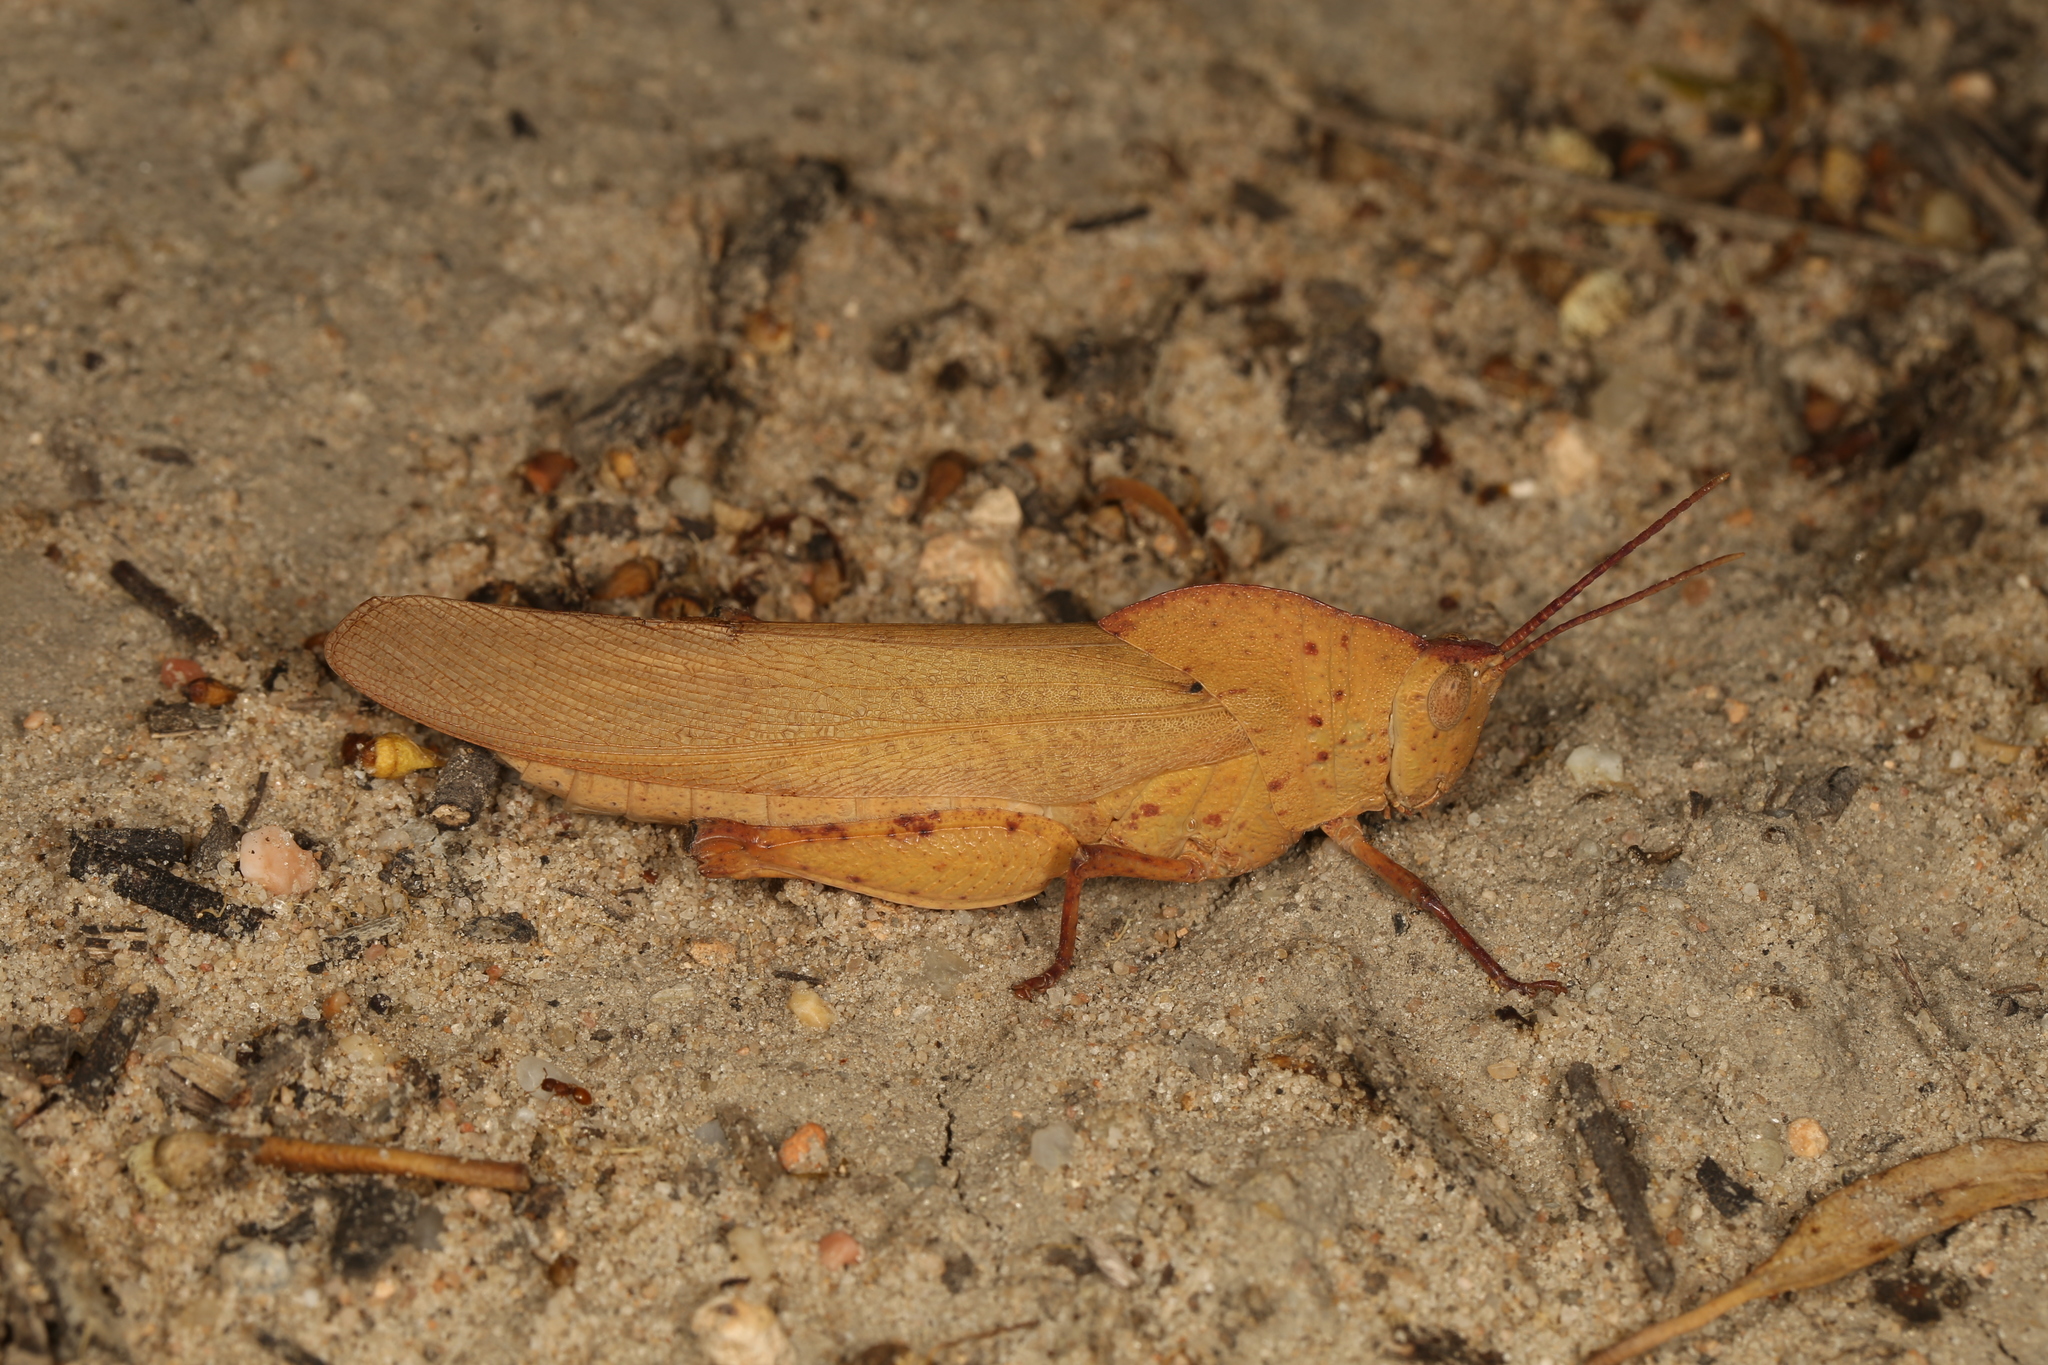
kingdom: Animalia
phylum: Arthropoda
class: Insecta
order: Orthoptera
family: Acrididae
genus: Goniaea
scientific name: Goniaea australasiae
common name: Gumleaf grasshopper
